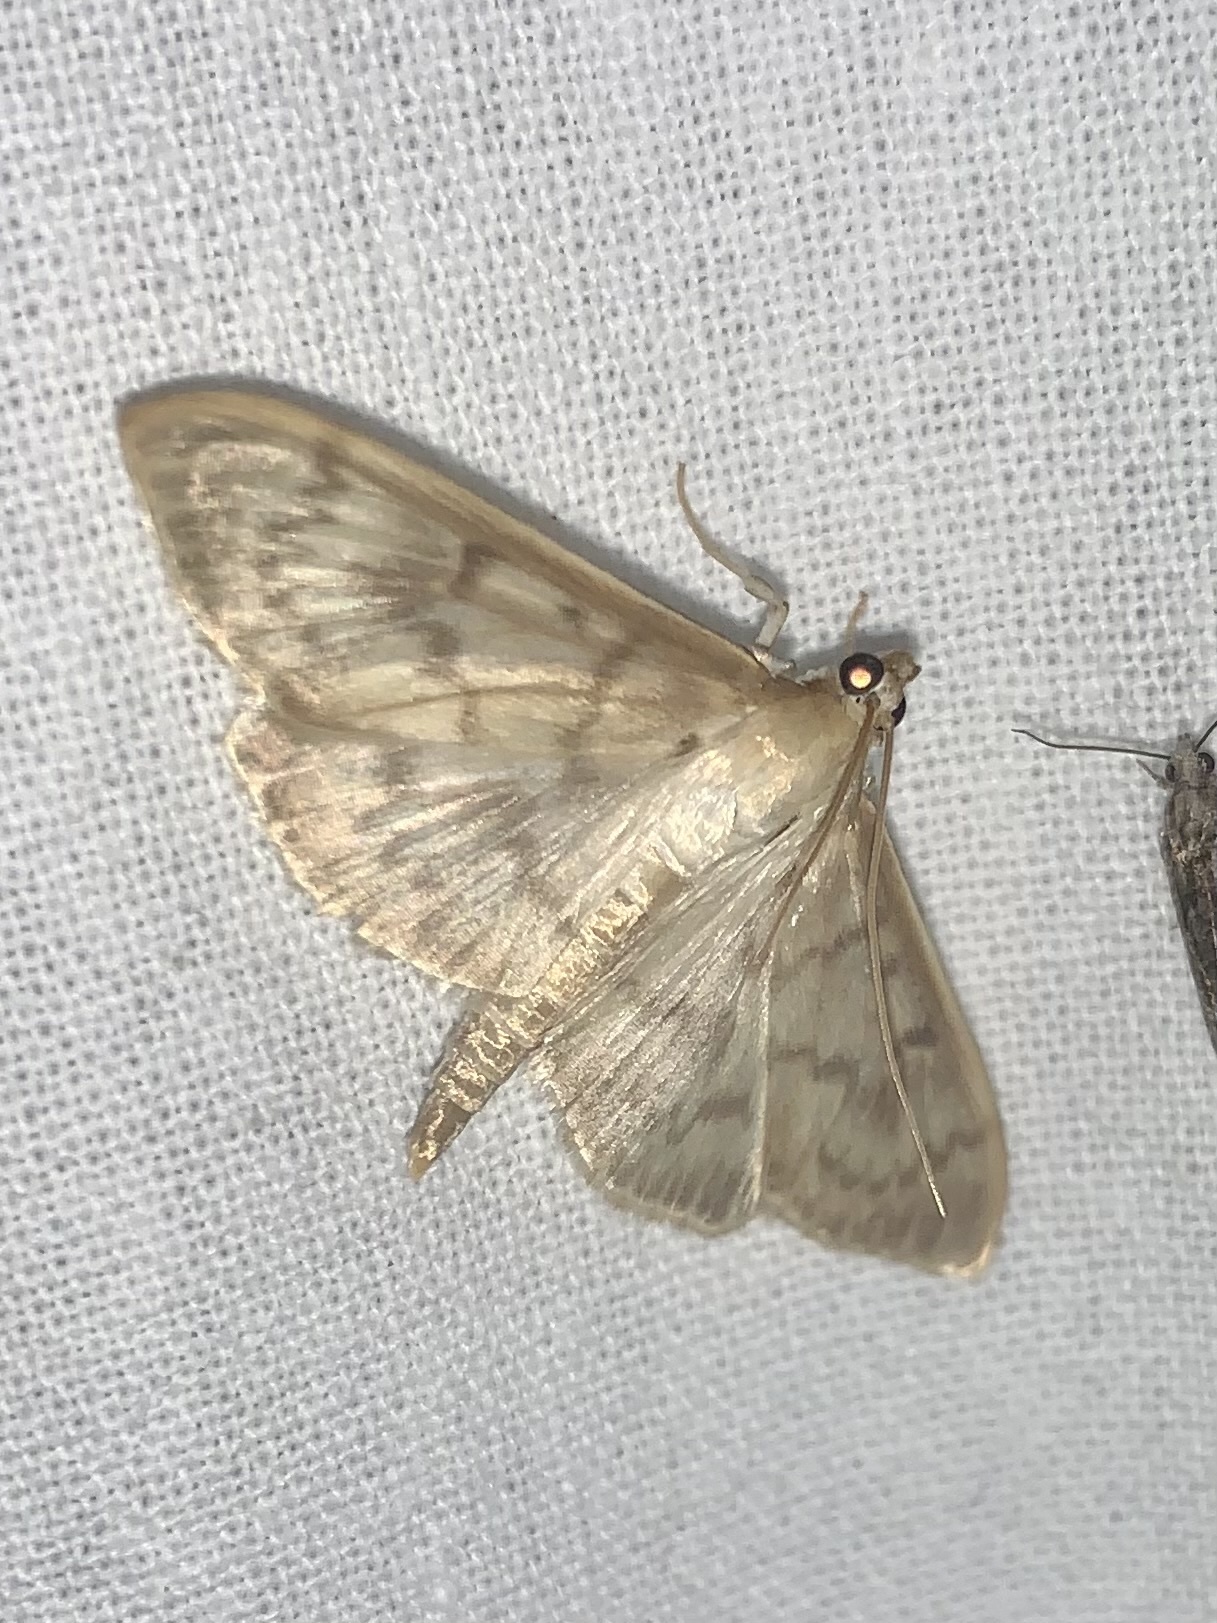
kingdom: Animalia
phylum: Arthropoda
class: Insecta
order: Lepidoptera
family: Crambidae
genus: Patania
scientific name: Patania ruralis
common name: Mother of pearl
